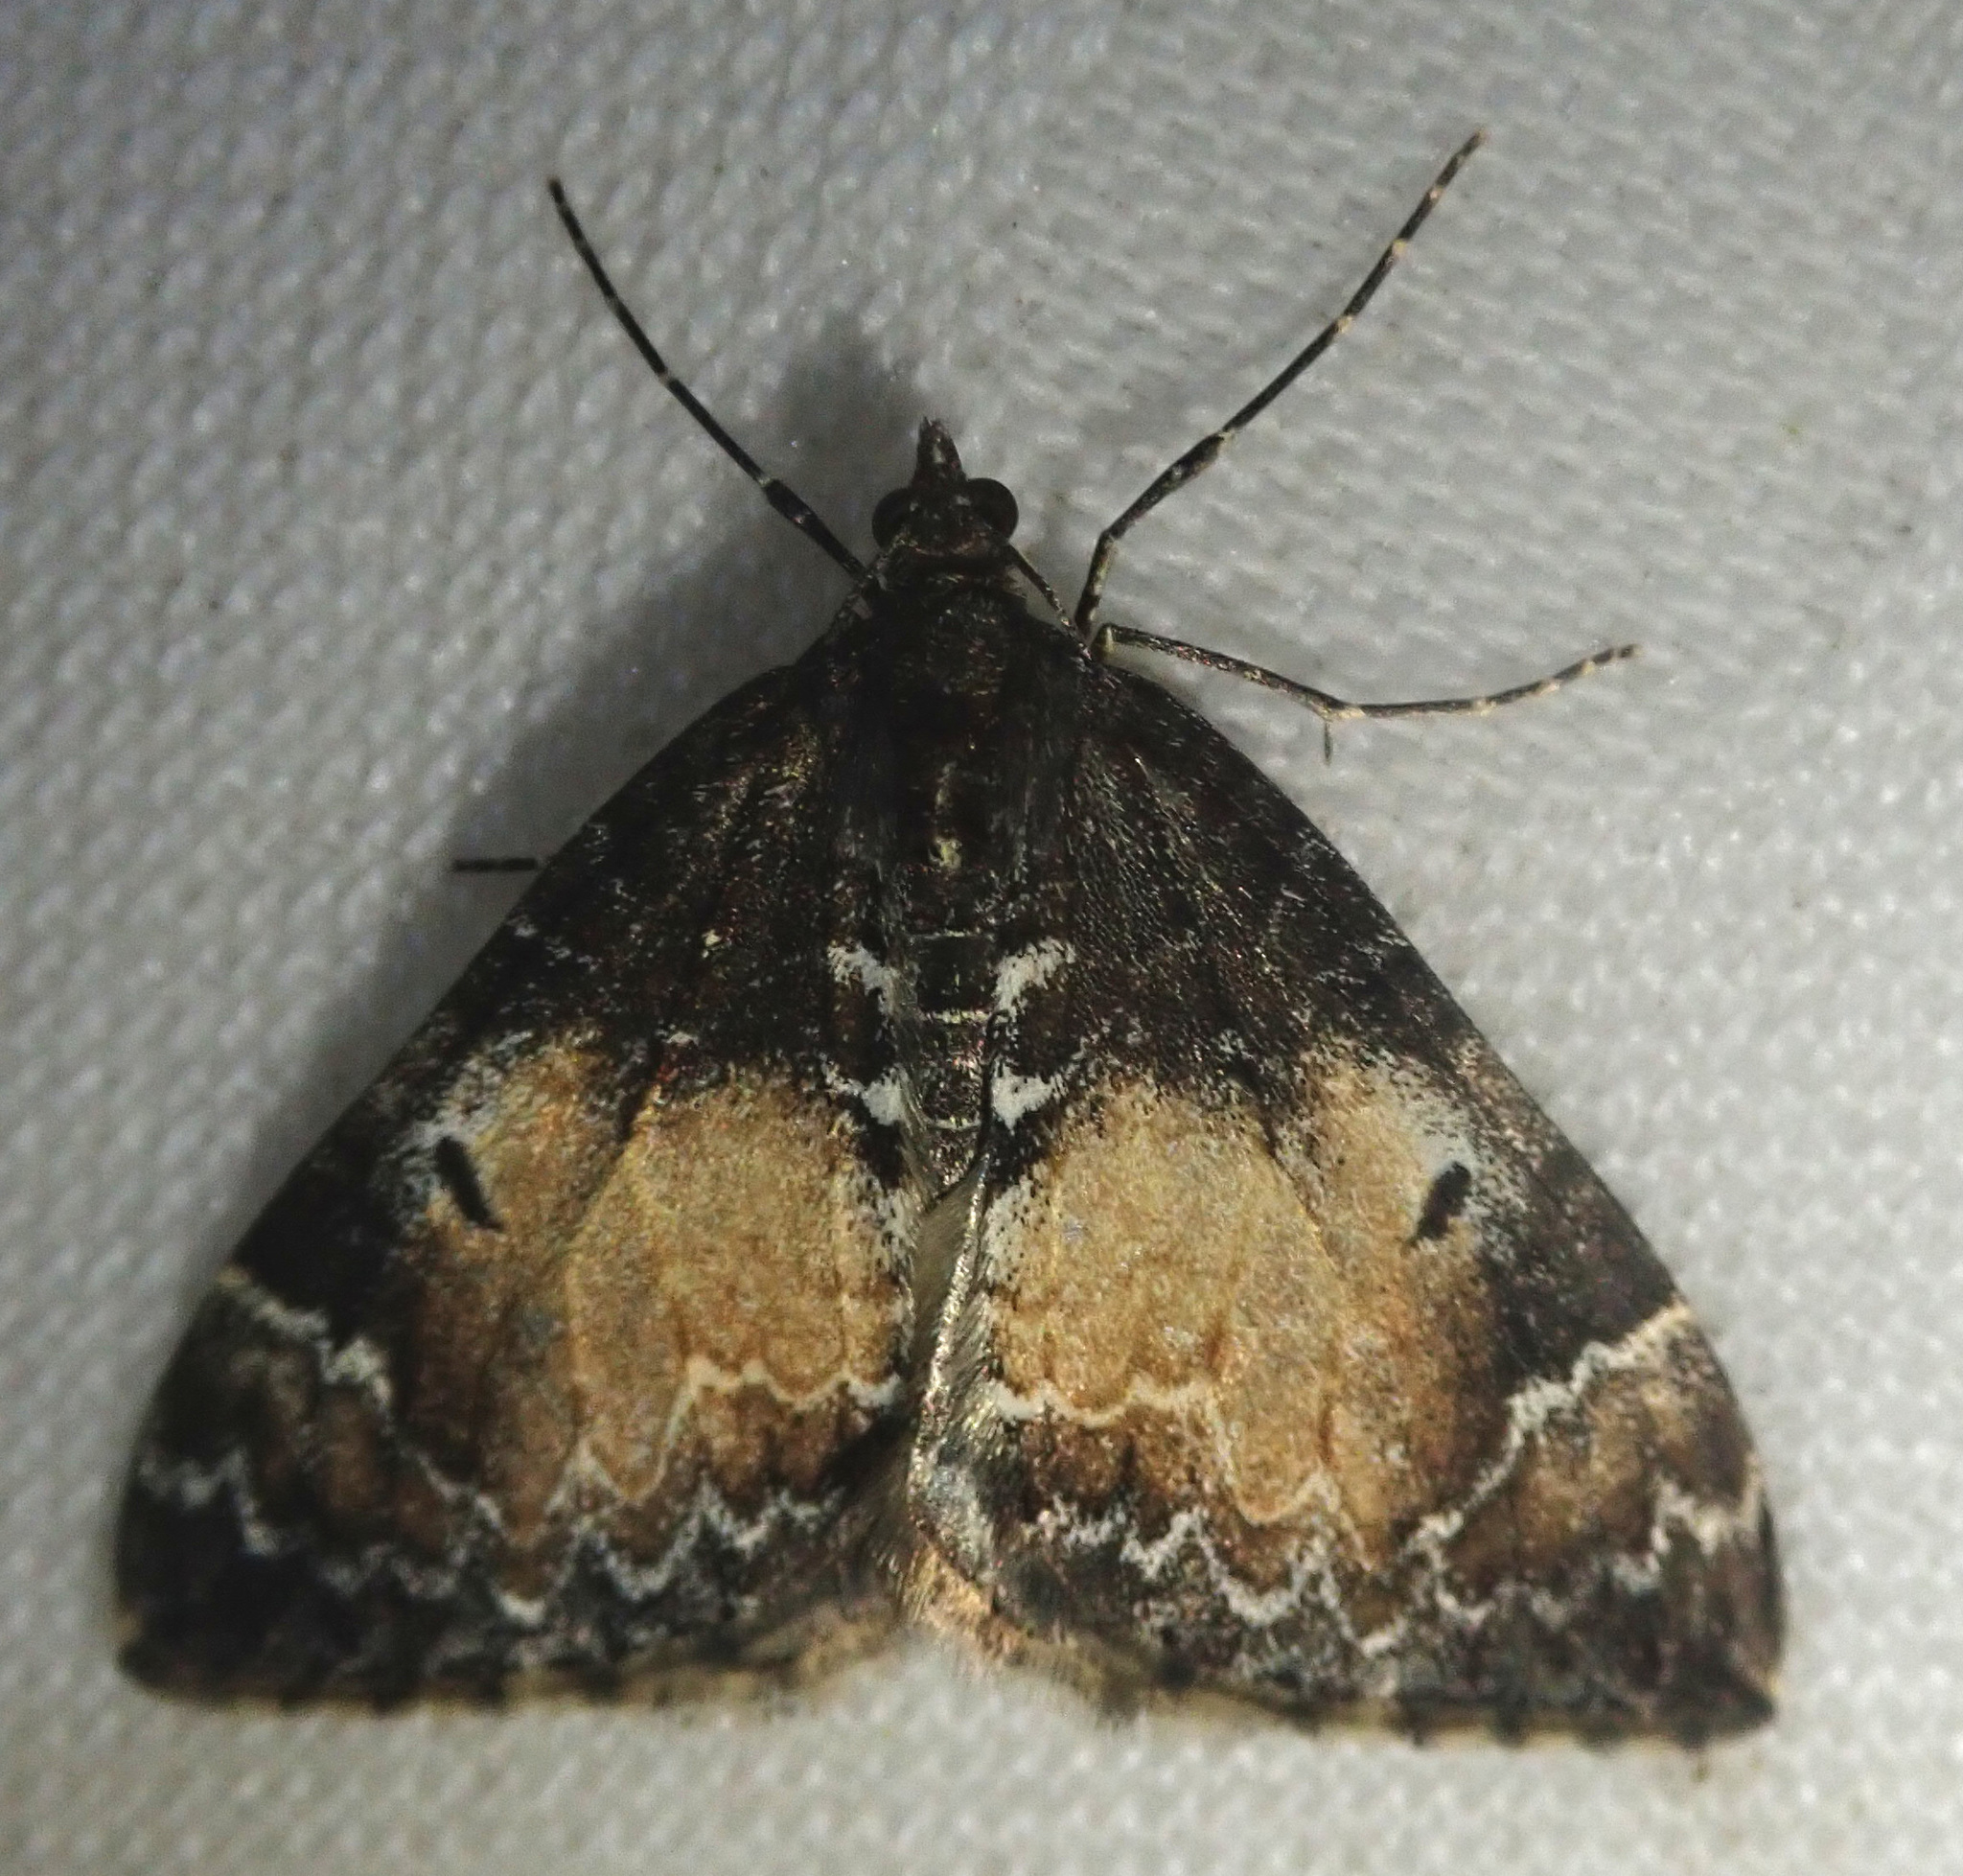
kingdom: Animalia
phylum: Arthropoda
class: Insecta
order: Lepidoptera
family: Geometridae
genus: Dysstroma
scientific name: Dysstroma truncata
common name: Common marbled carpet
